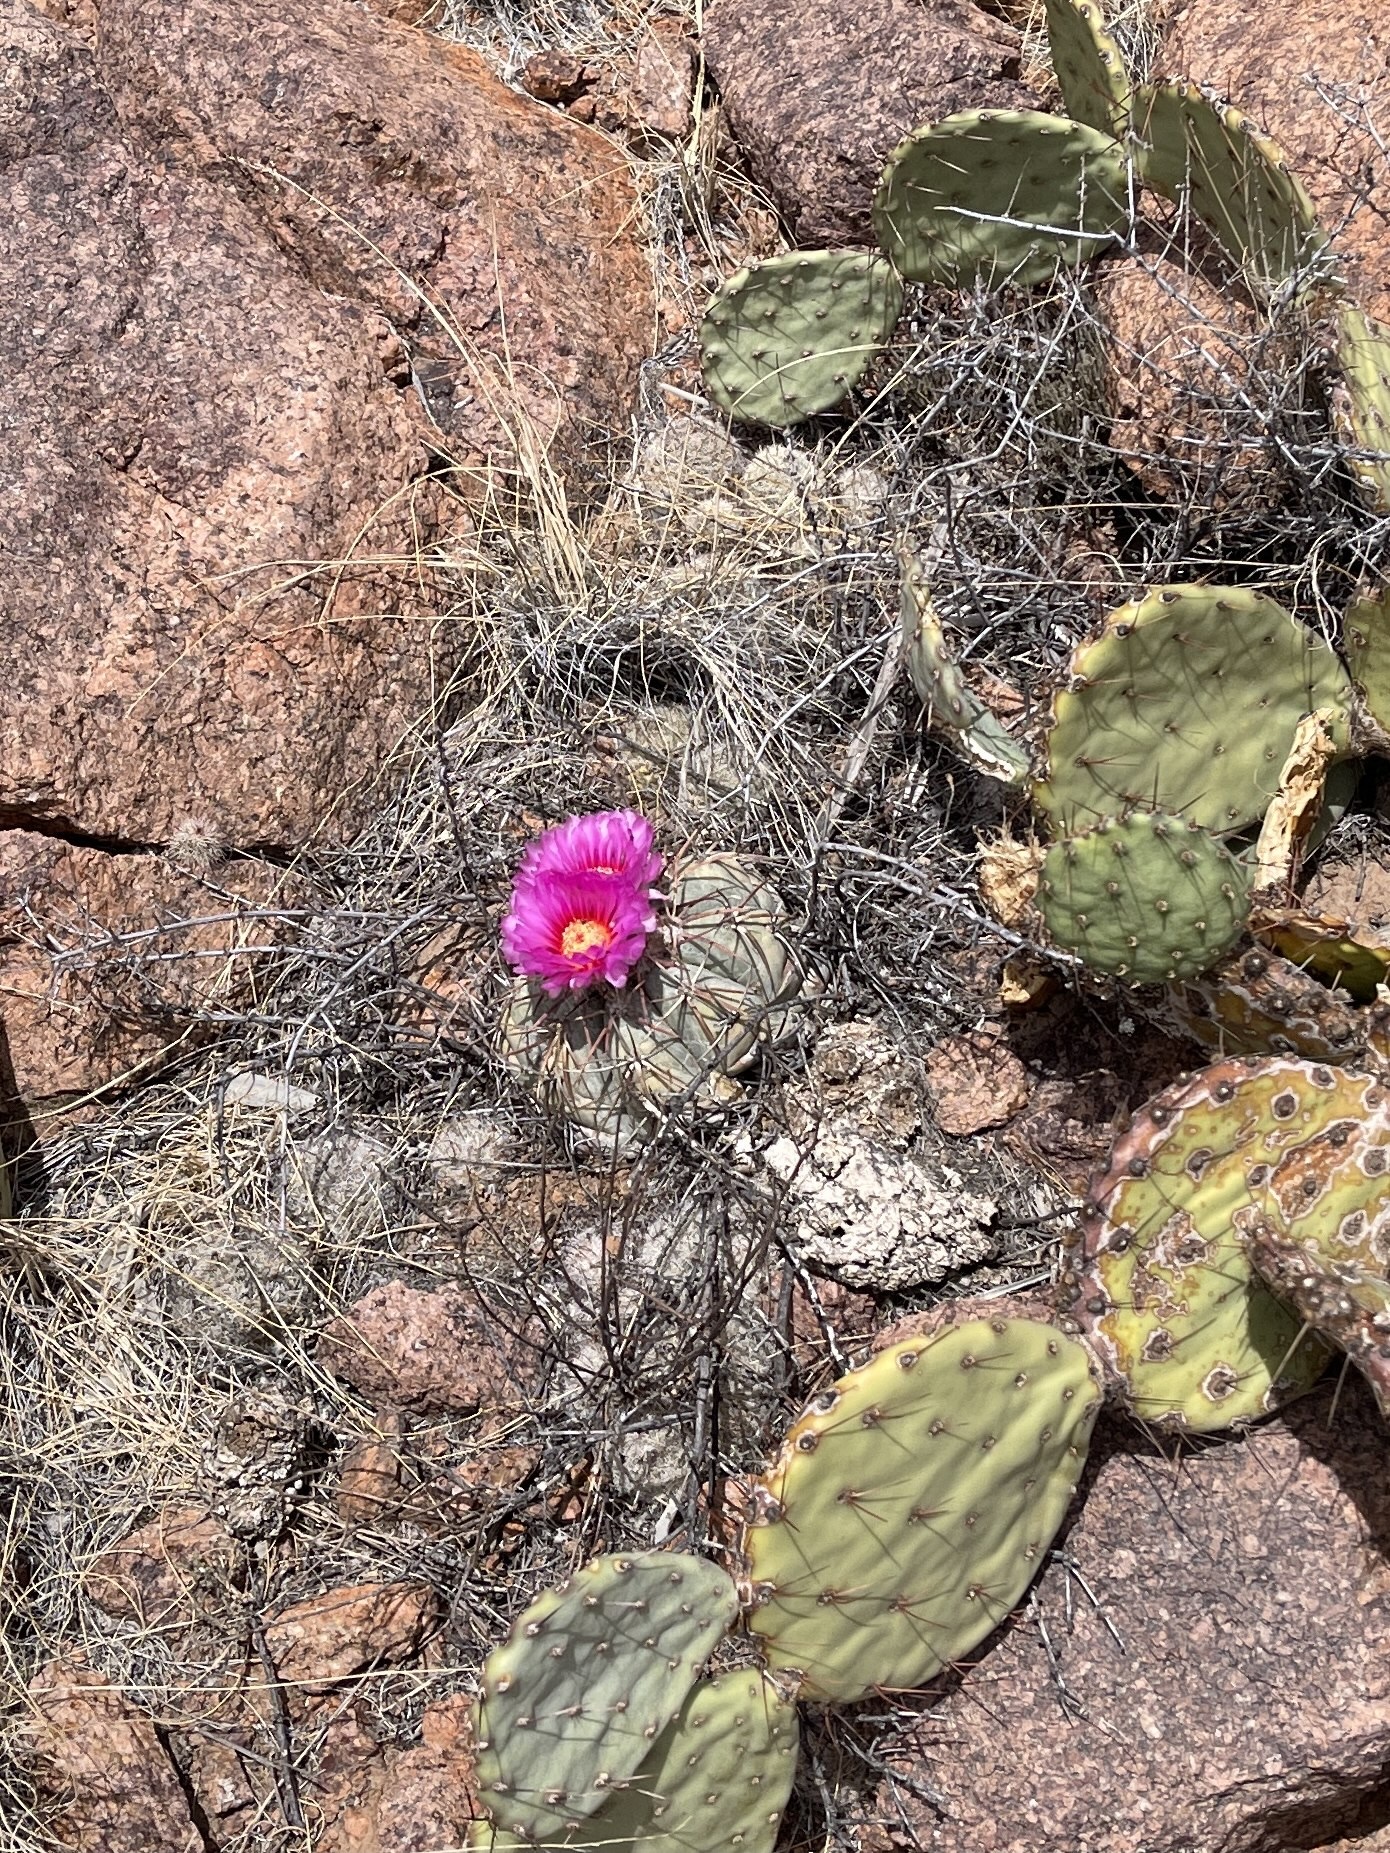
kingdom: Plantae
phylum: Tracheophyta
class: Magnoliopsida
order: Caryophyllales
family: Cactaceae
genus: Echinocactus
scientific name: Echinocactus horizonthalonius
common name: Devilshead
